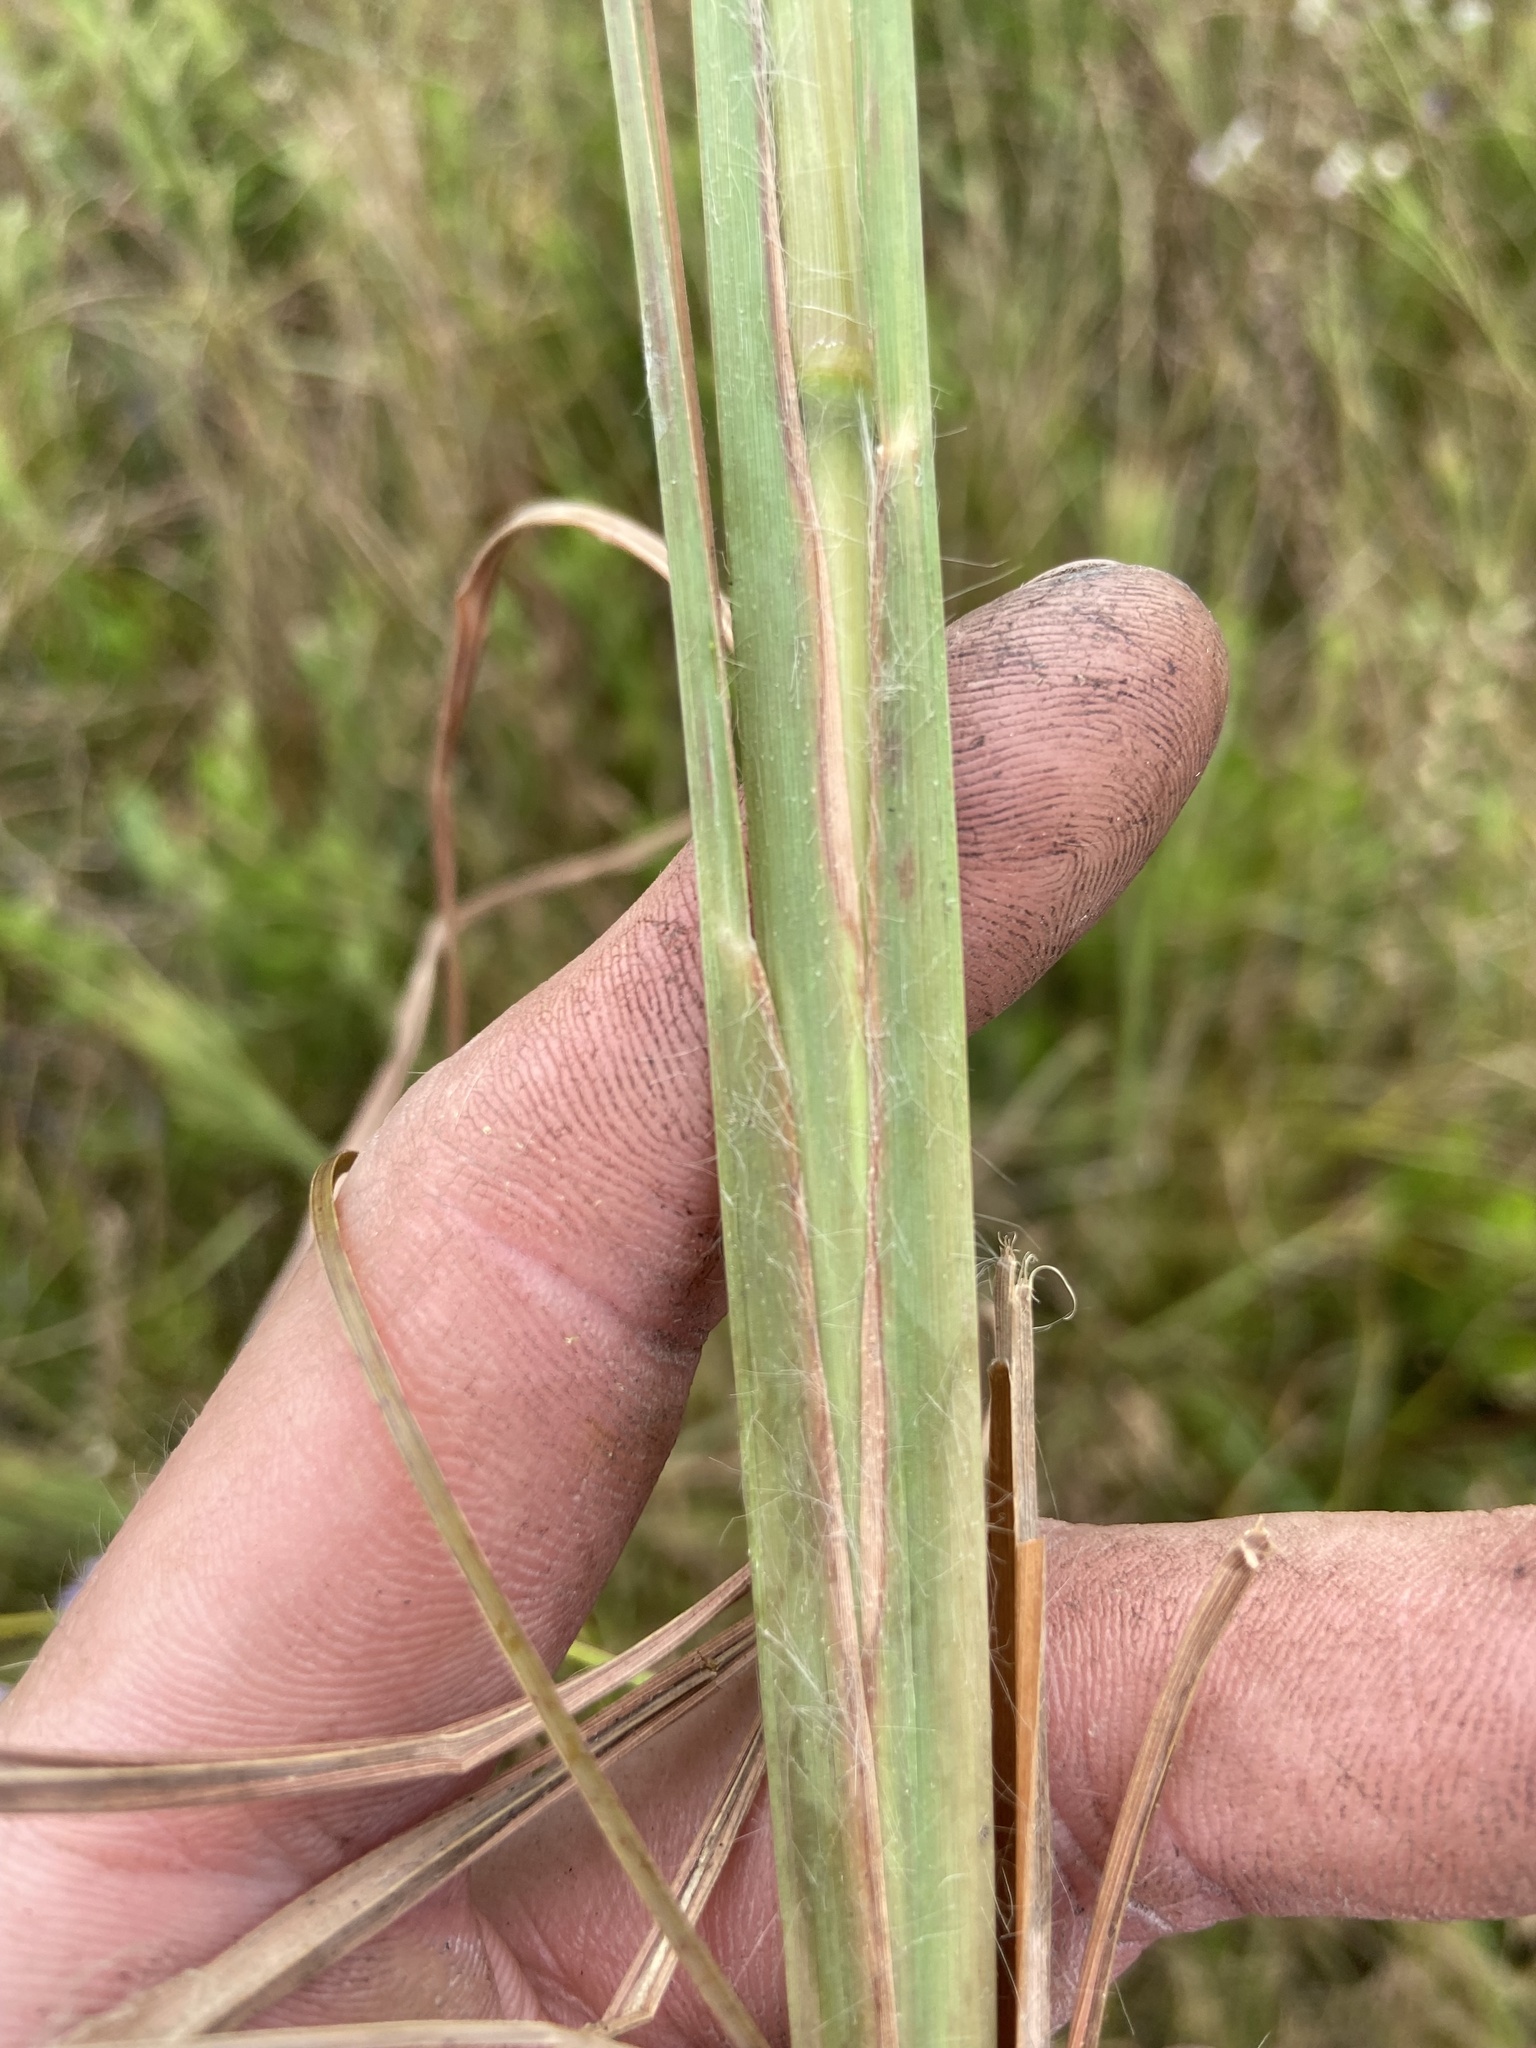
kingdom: Plantae
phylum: Tracheophyta
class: Liliopsida
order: Poales
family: Poaceae
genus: Andropogon
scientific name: Andropogon glomeratus
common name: Bushy beard grass
